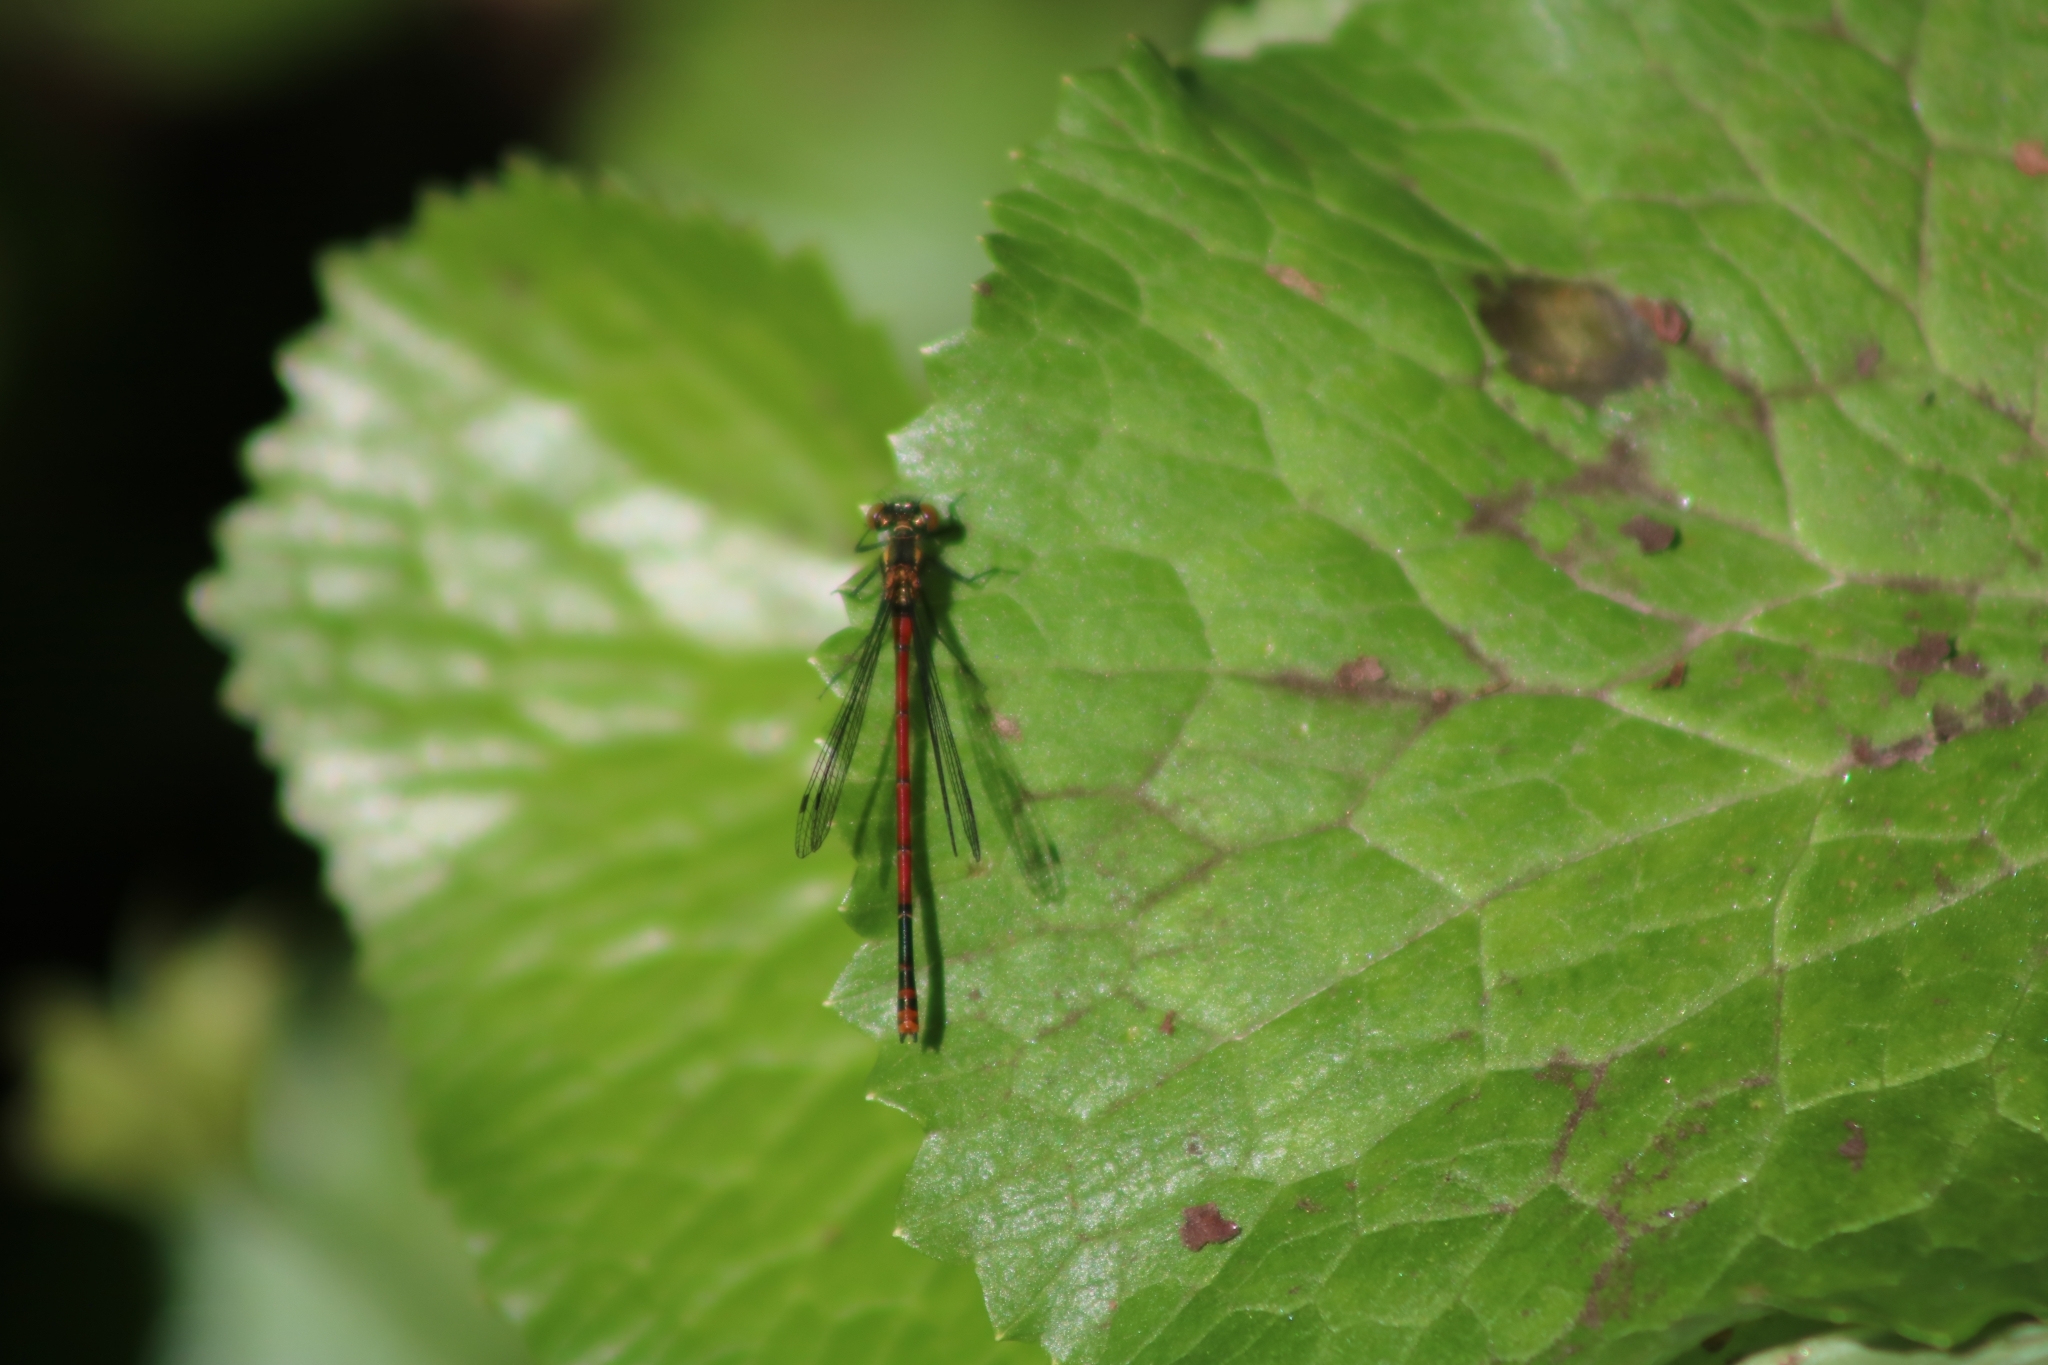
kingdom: Animalia
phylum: Arthropoda
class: Insecta
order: Odonata
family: Coenagrionidae
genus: Pyrrhosoma
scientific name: Pyrrhosoma nymphula
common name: Large red damsel
